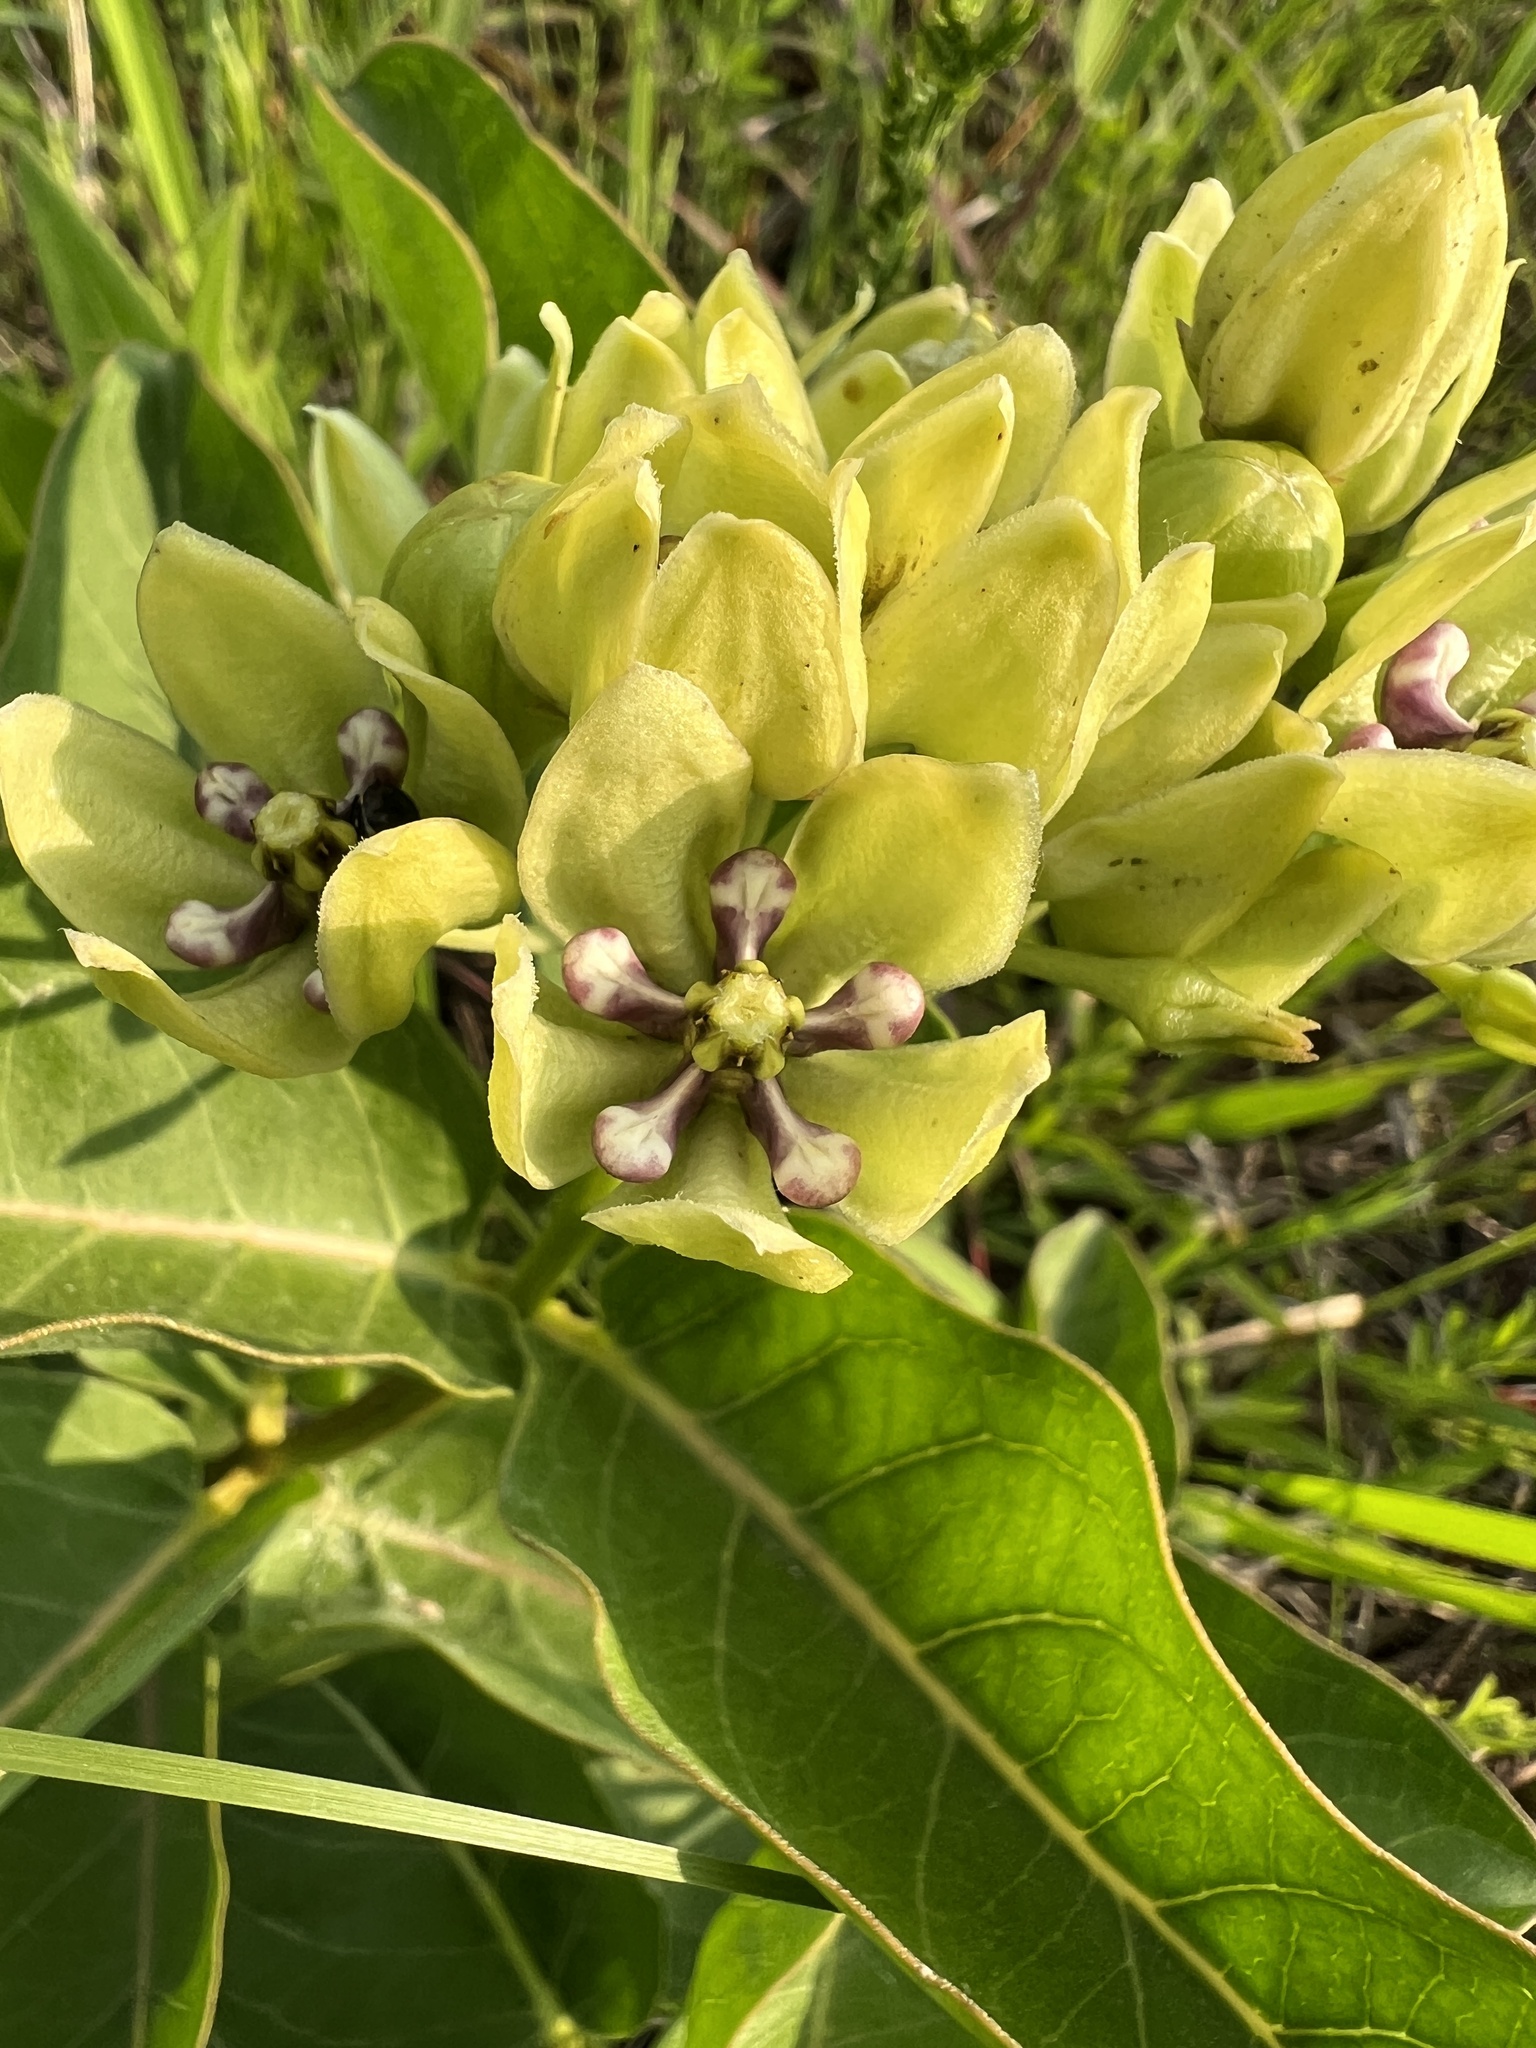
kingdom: Plantae
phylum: Tracheophyta
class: Magnoliopsida
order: Gentianales
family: Apocynaceae
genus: Asclepias
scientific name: Asclepias viridis
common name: Antelope-horns
